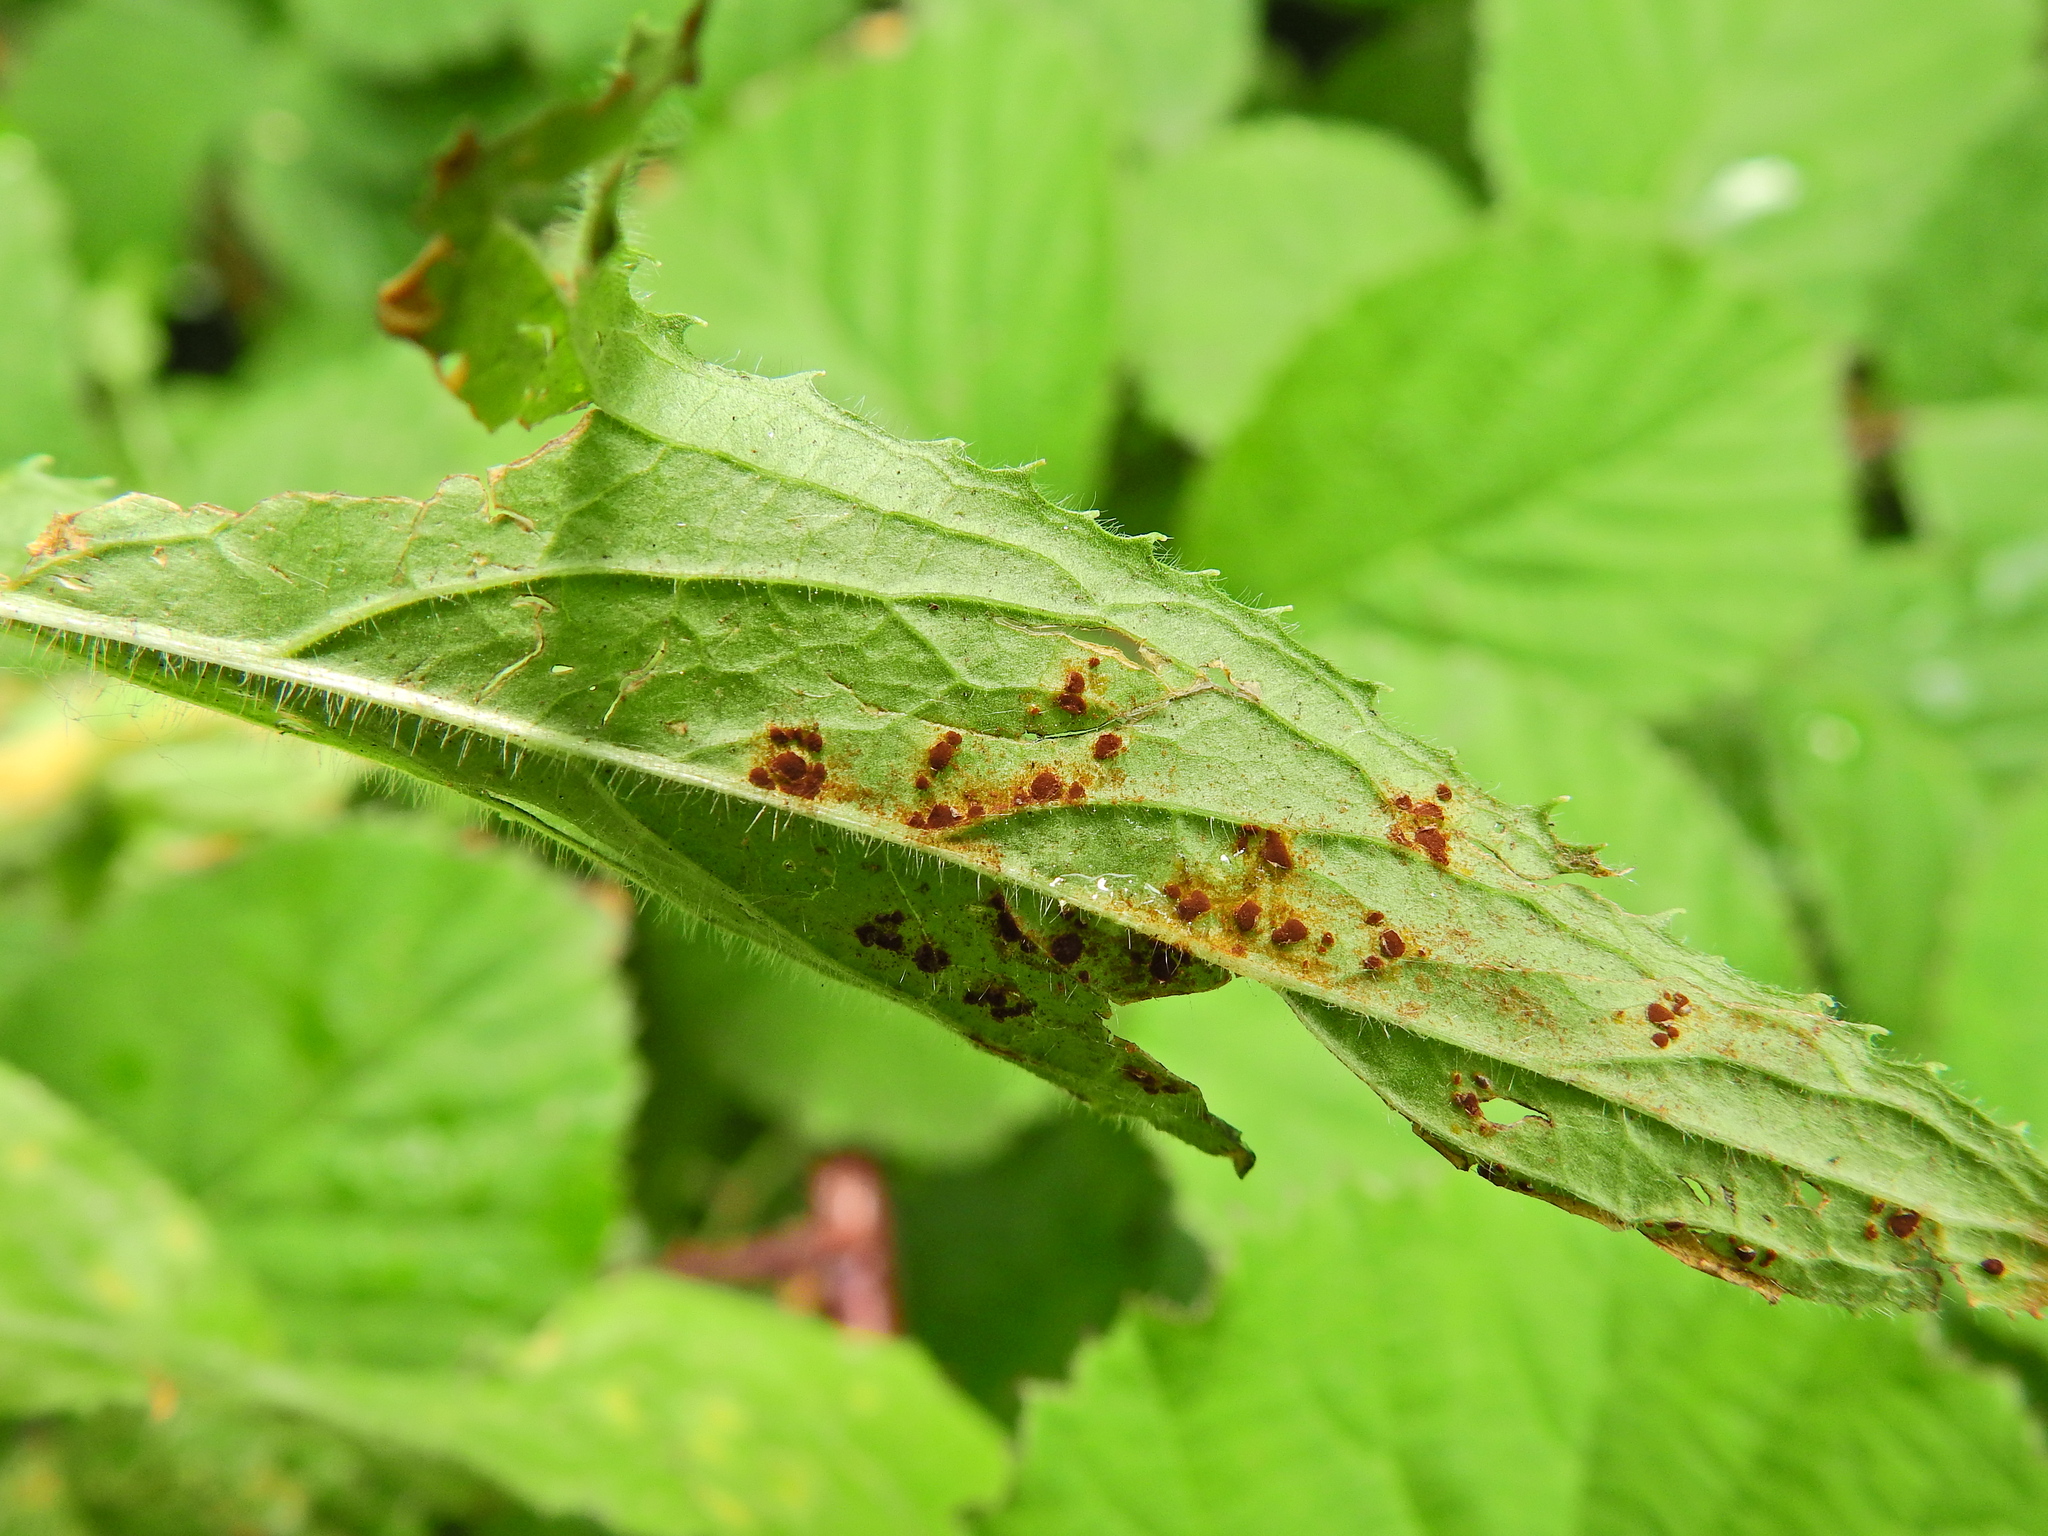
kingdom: Fungi
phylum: Basidiomycota
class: Pucciniomycetes
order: Pucciniales
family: Pucciniaceae
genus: Puccinia
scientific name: Puccinia pulverulenta
